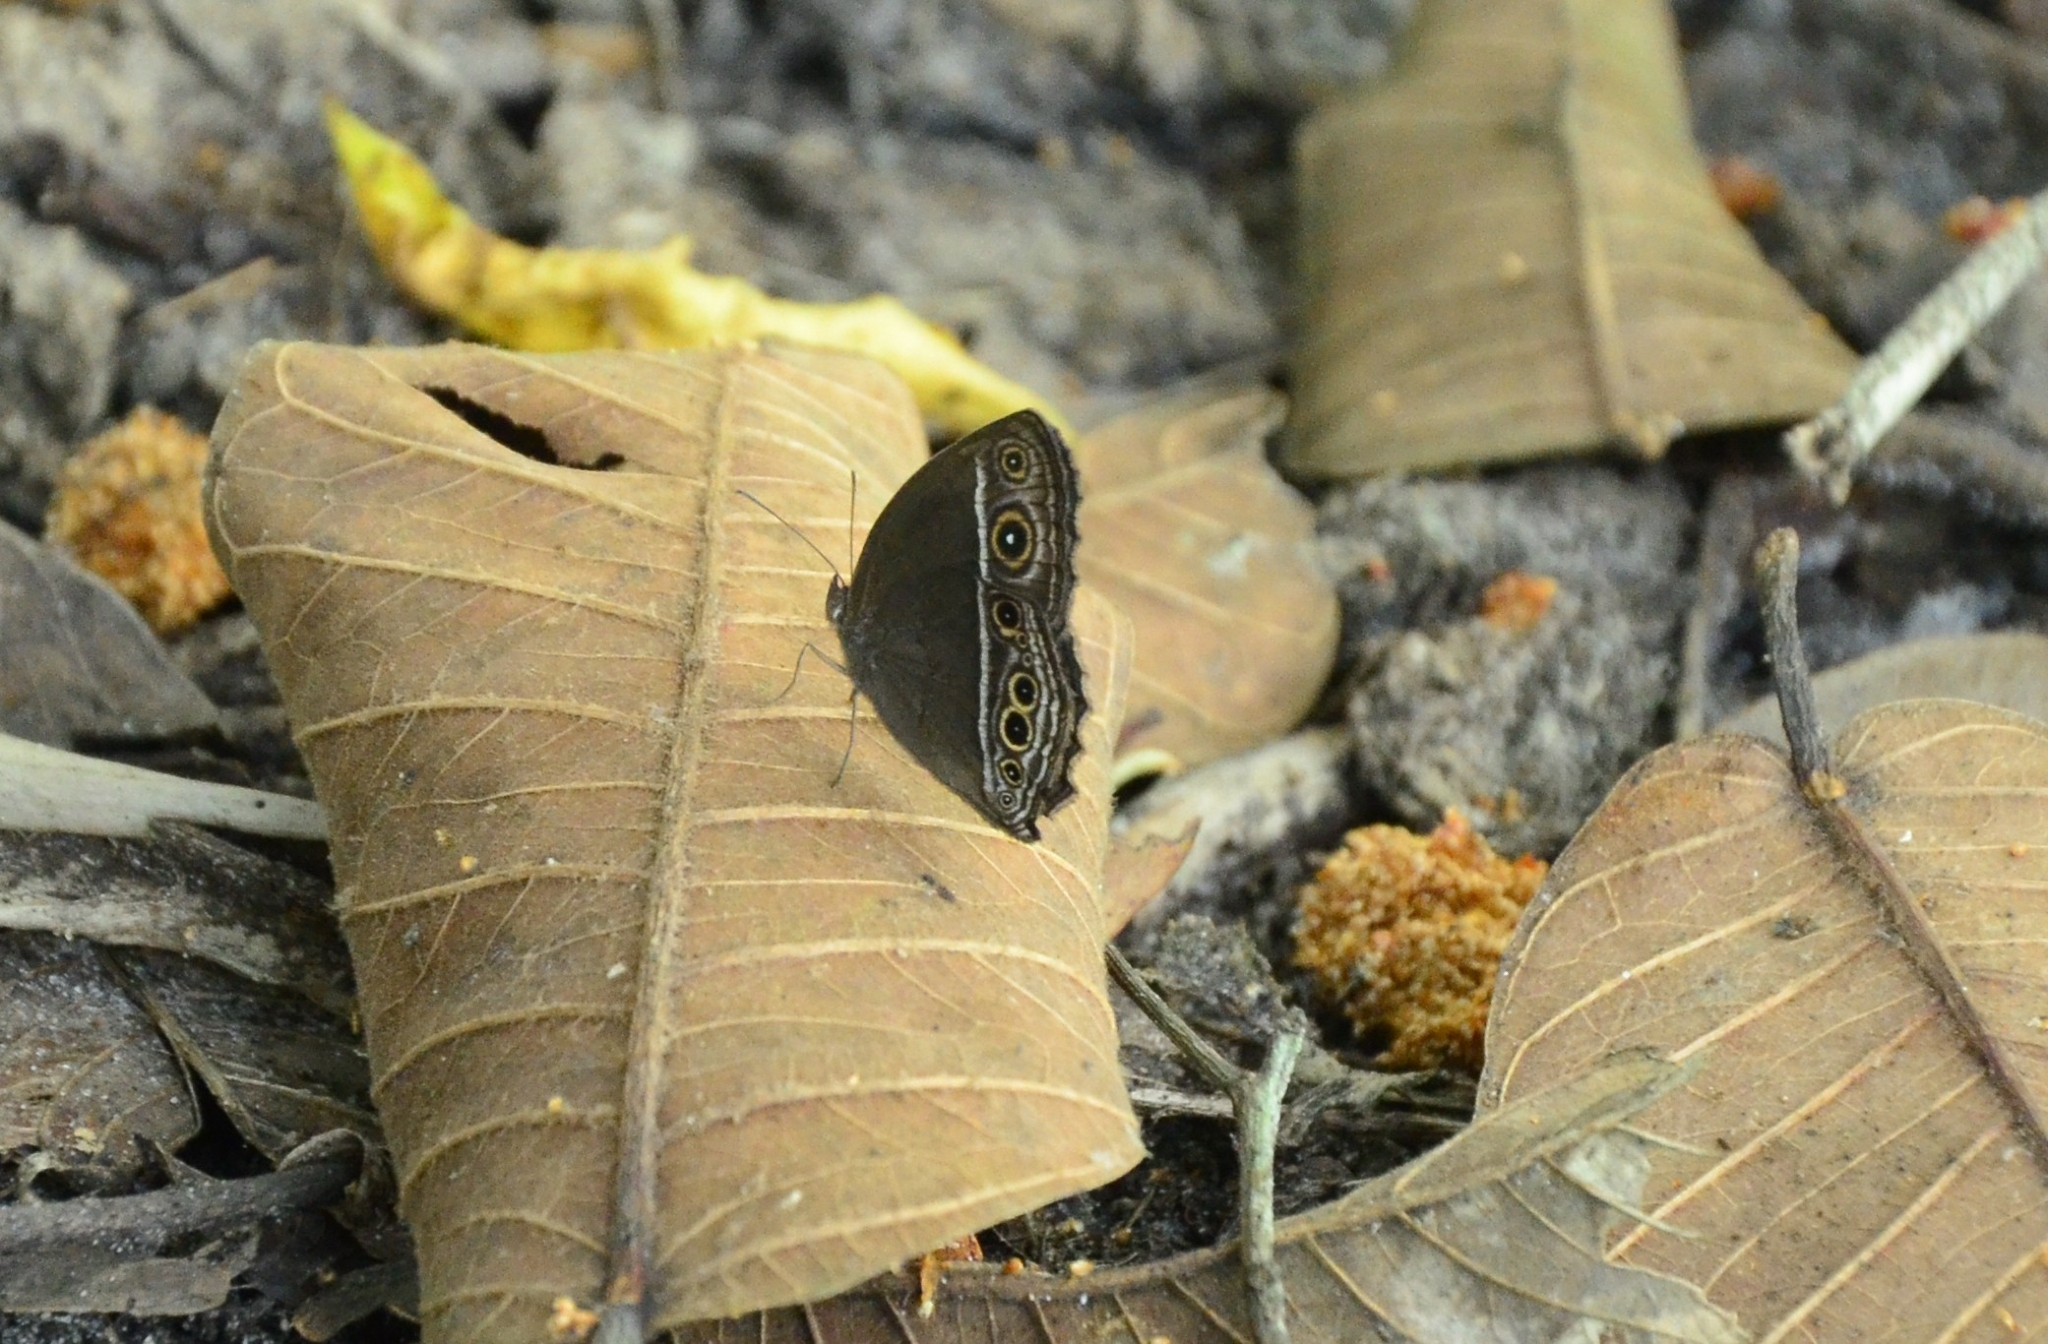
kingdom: Animalia
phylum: Arthropoda
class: Insecta
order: Lepidoptera
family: Nymphalidae
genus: Mycalesis
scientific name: Mycalesis mineus
